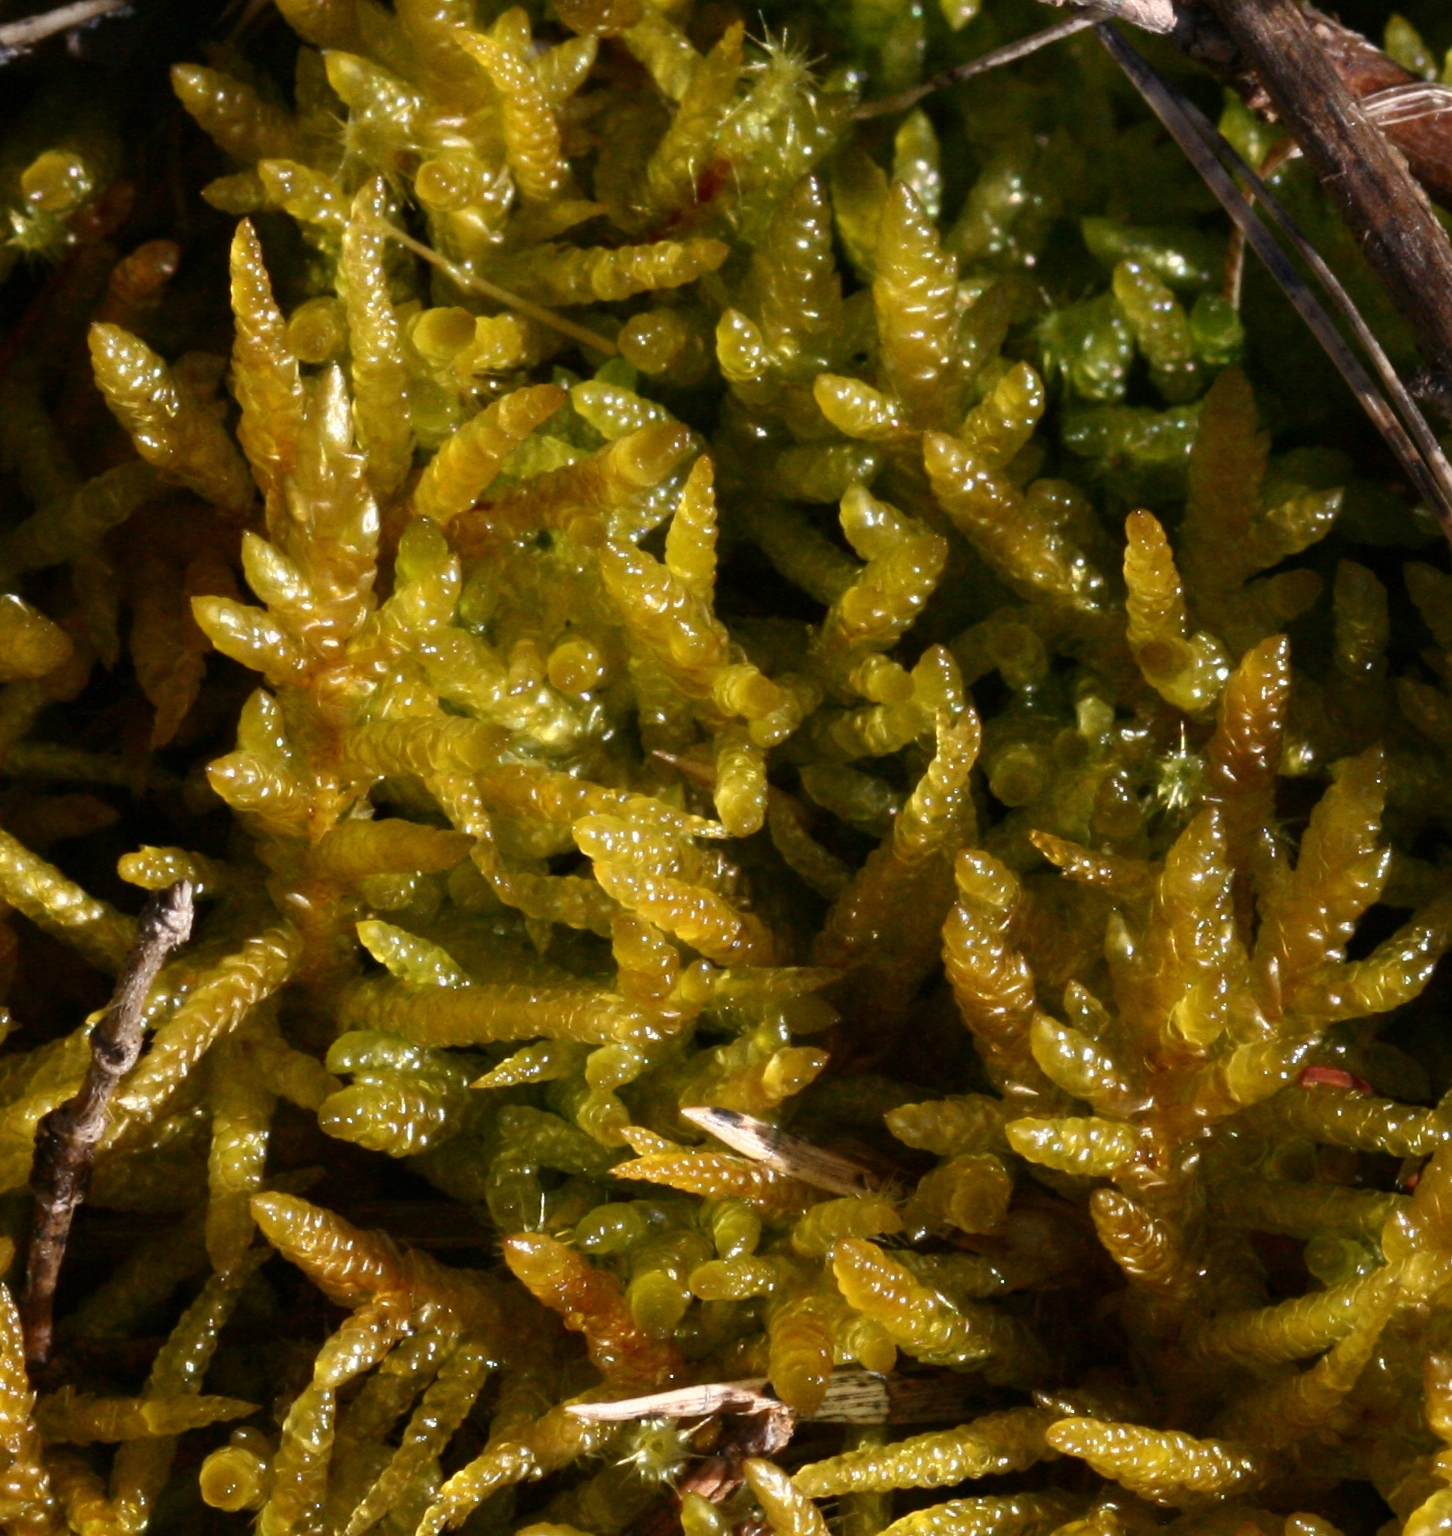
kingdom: Plantae
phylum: Bryophyta
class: Bryopsida
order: Hypnales
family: Brachytheciaceae
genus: Pseudoscleropodium
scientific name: Pseudoscleropodium purum
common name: Neat feather-moss
